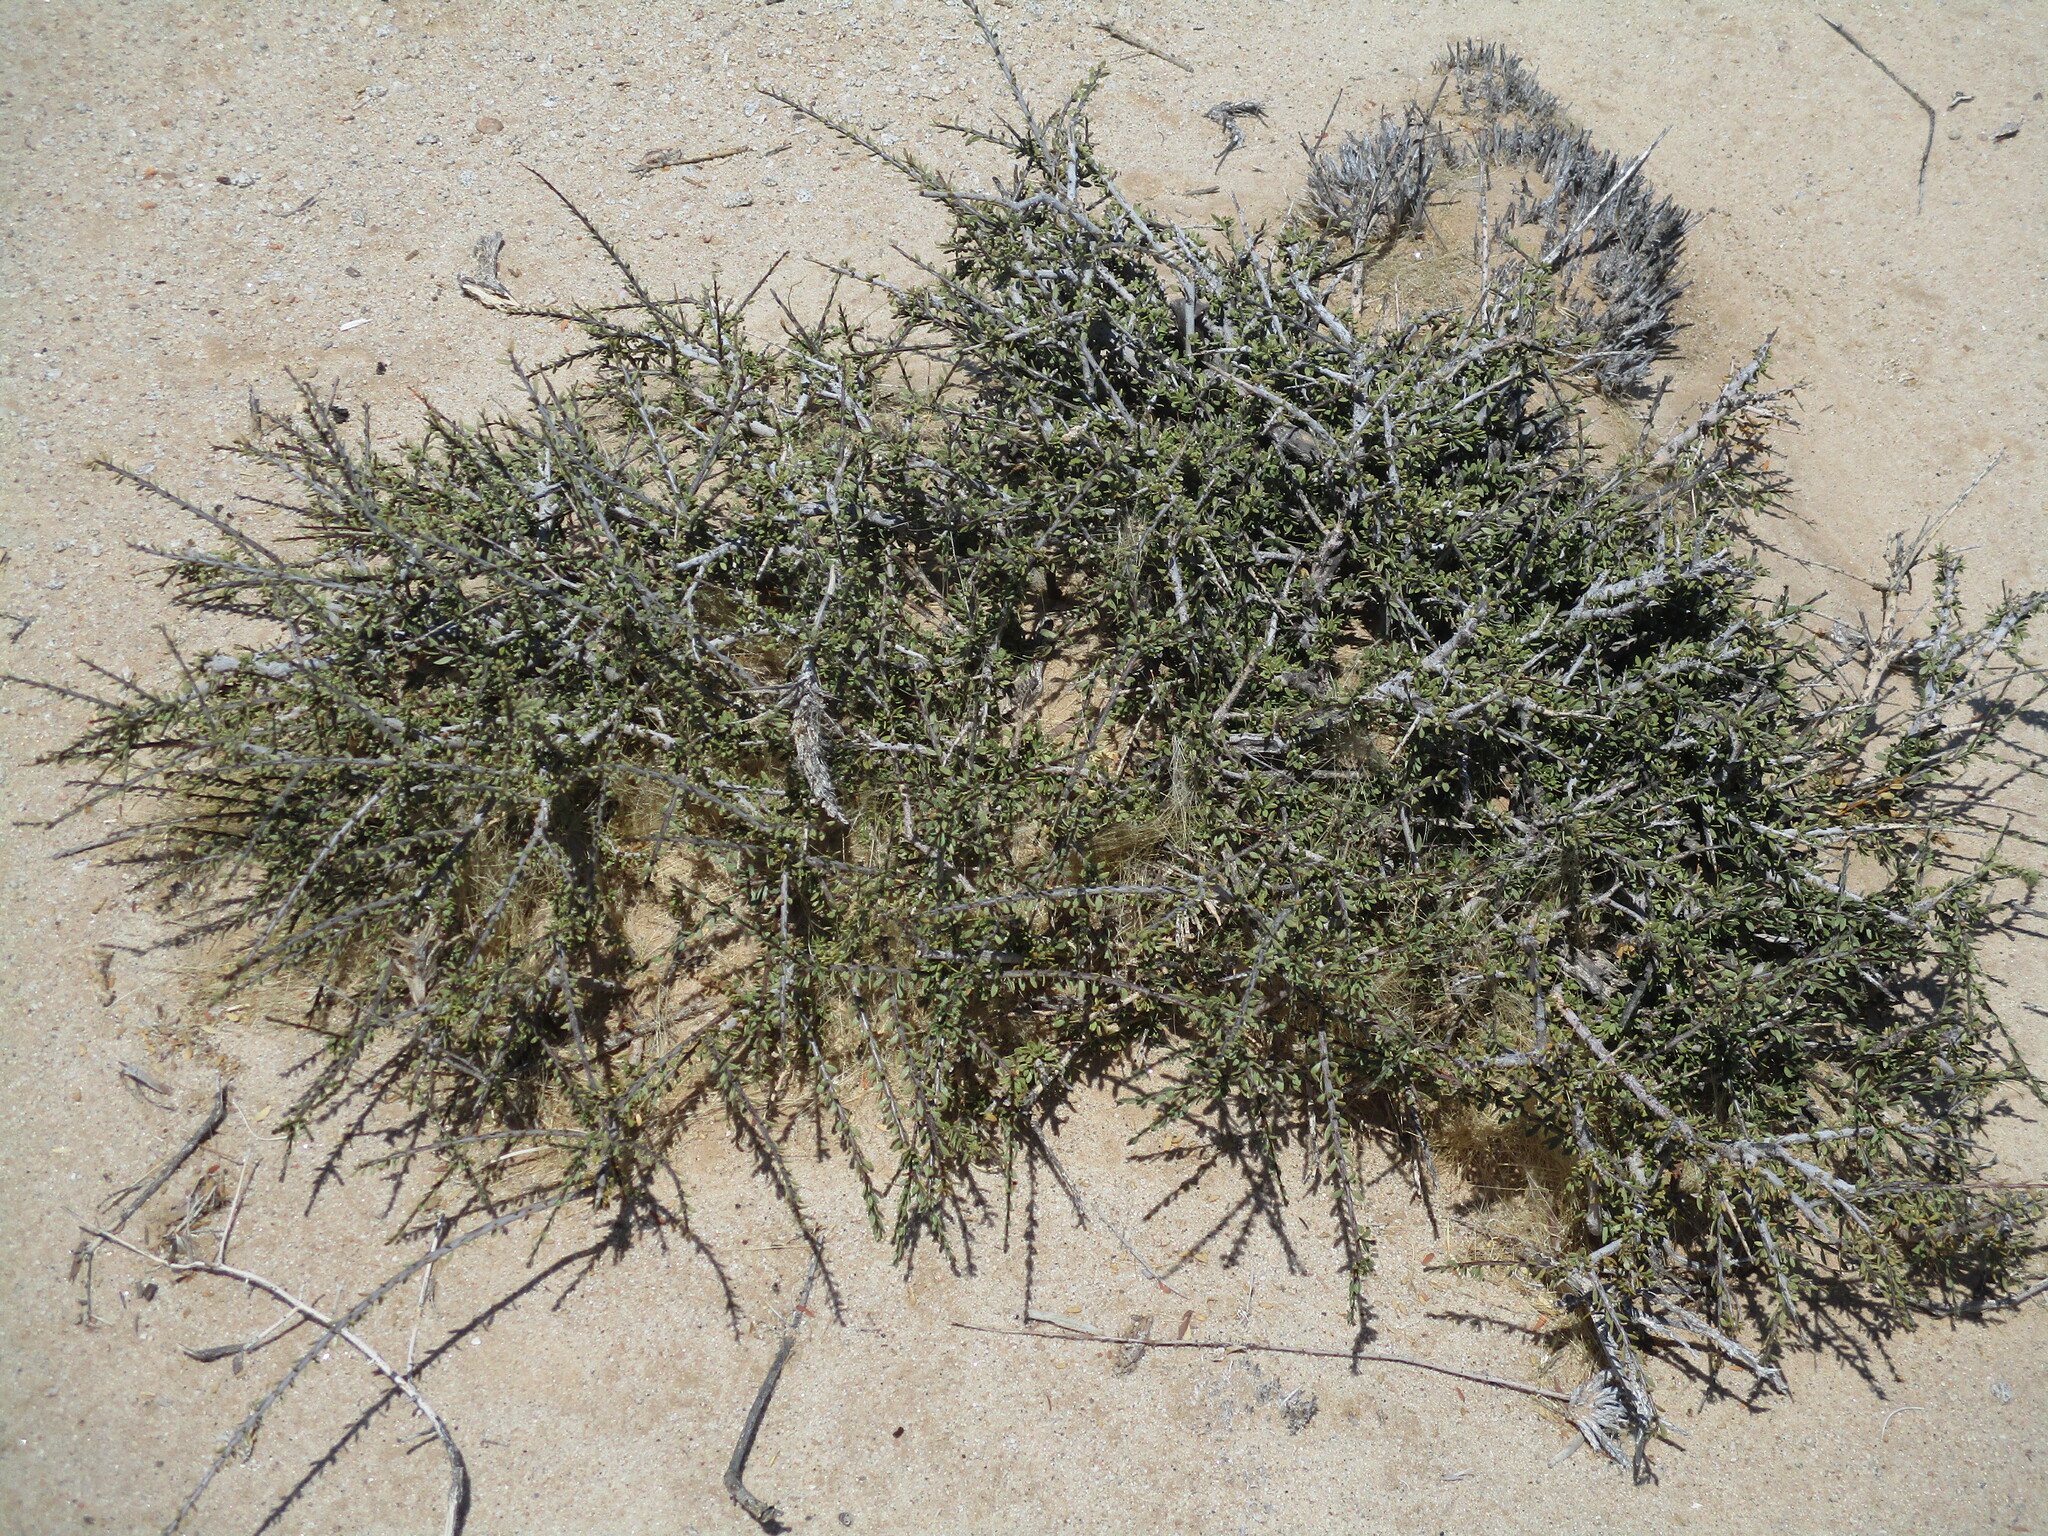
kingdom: Plantae
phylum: Tracheophyta
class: Magnoliopsida
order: Brassicales
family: Capparaceae
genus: Boscia
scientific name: Boscia foetida
